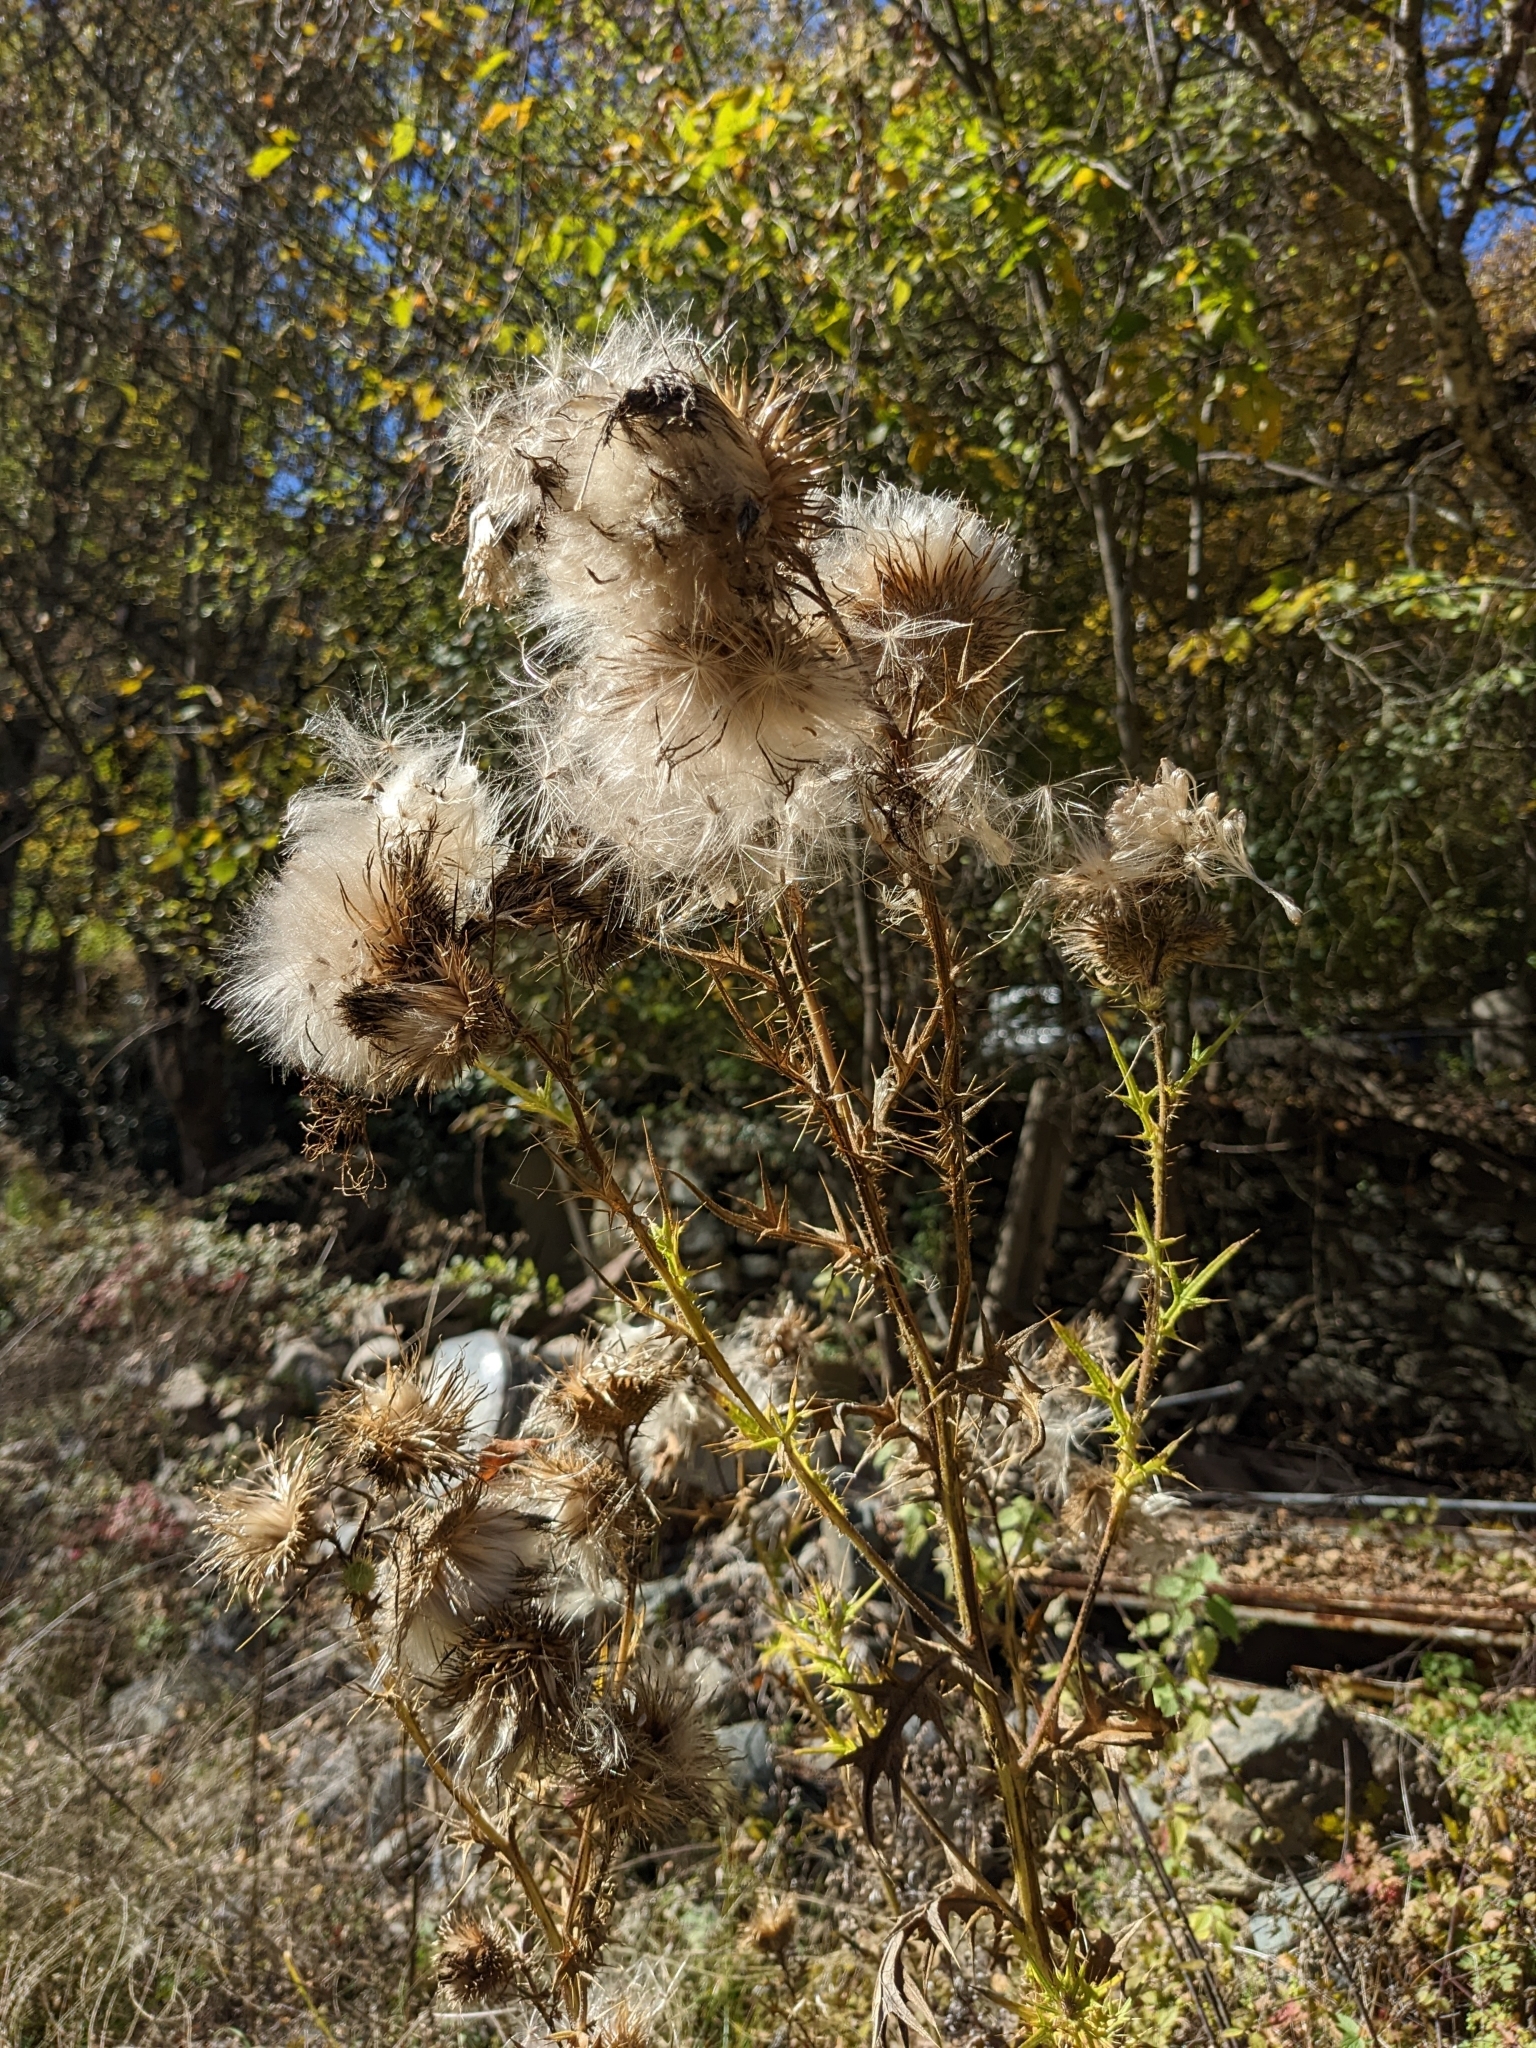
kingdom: Plantae
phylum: Tracheophyta
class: Magnoliopsida
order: Asterales
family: Asteraceae
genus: Cirsium
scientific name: Cirsium vulgare
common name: Bull thistle
